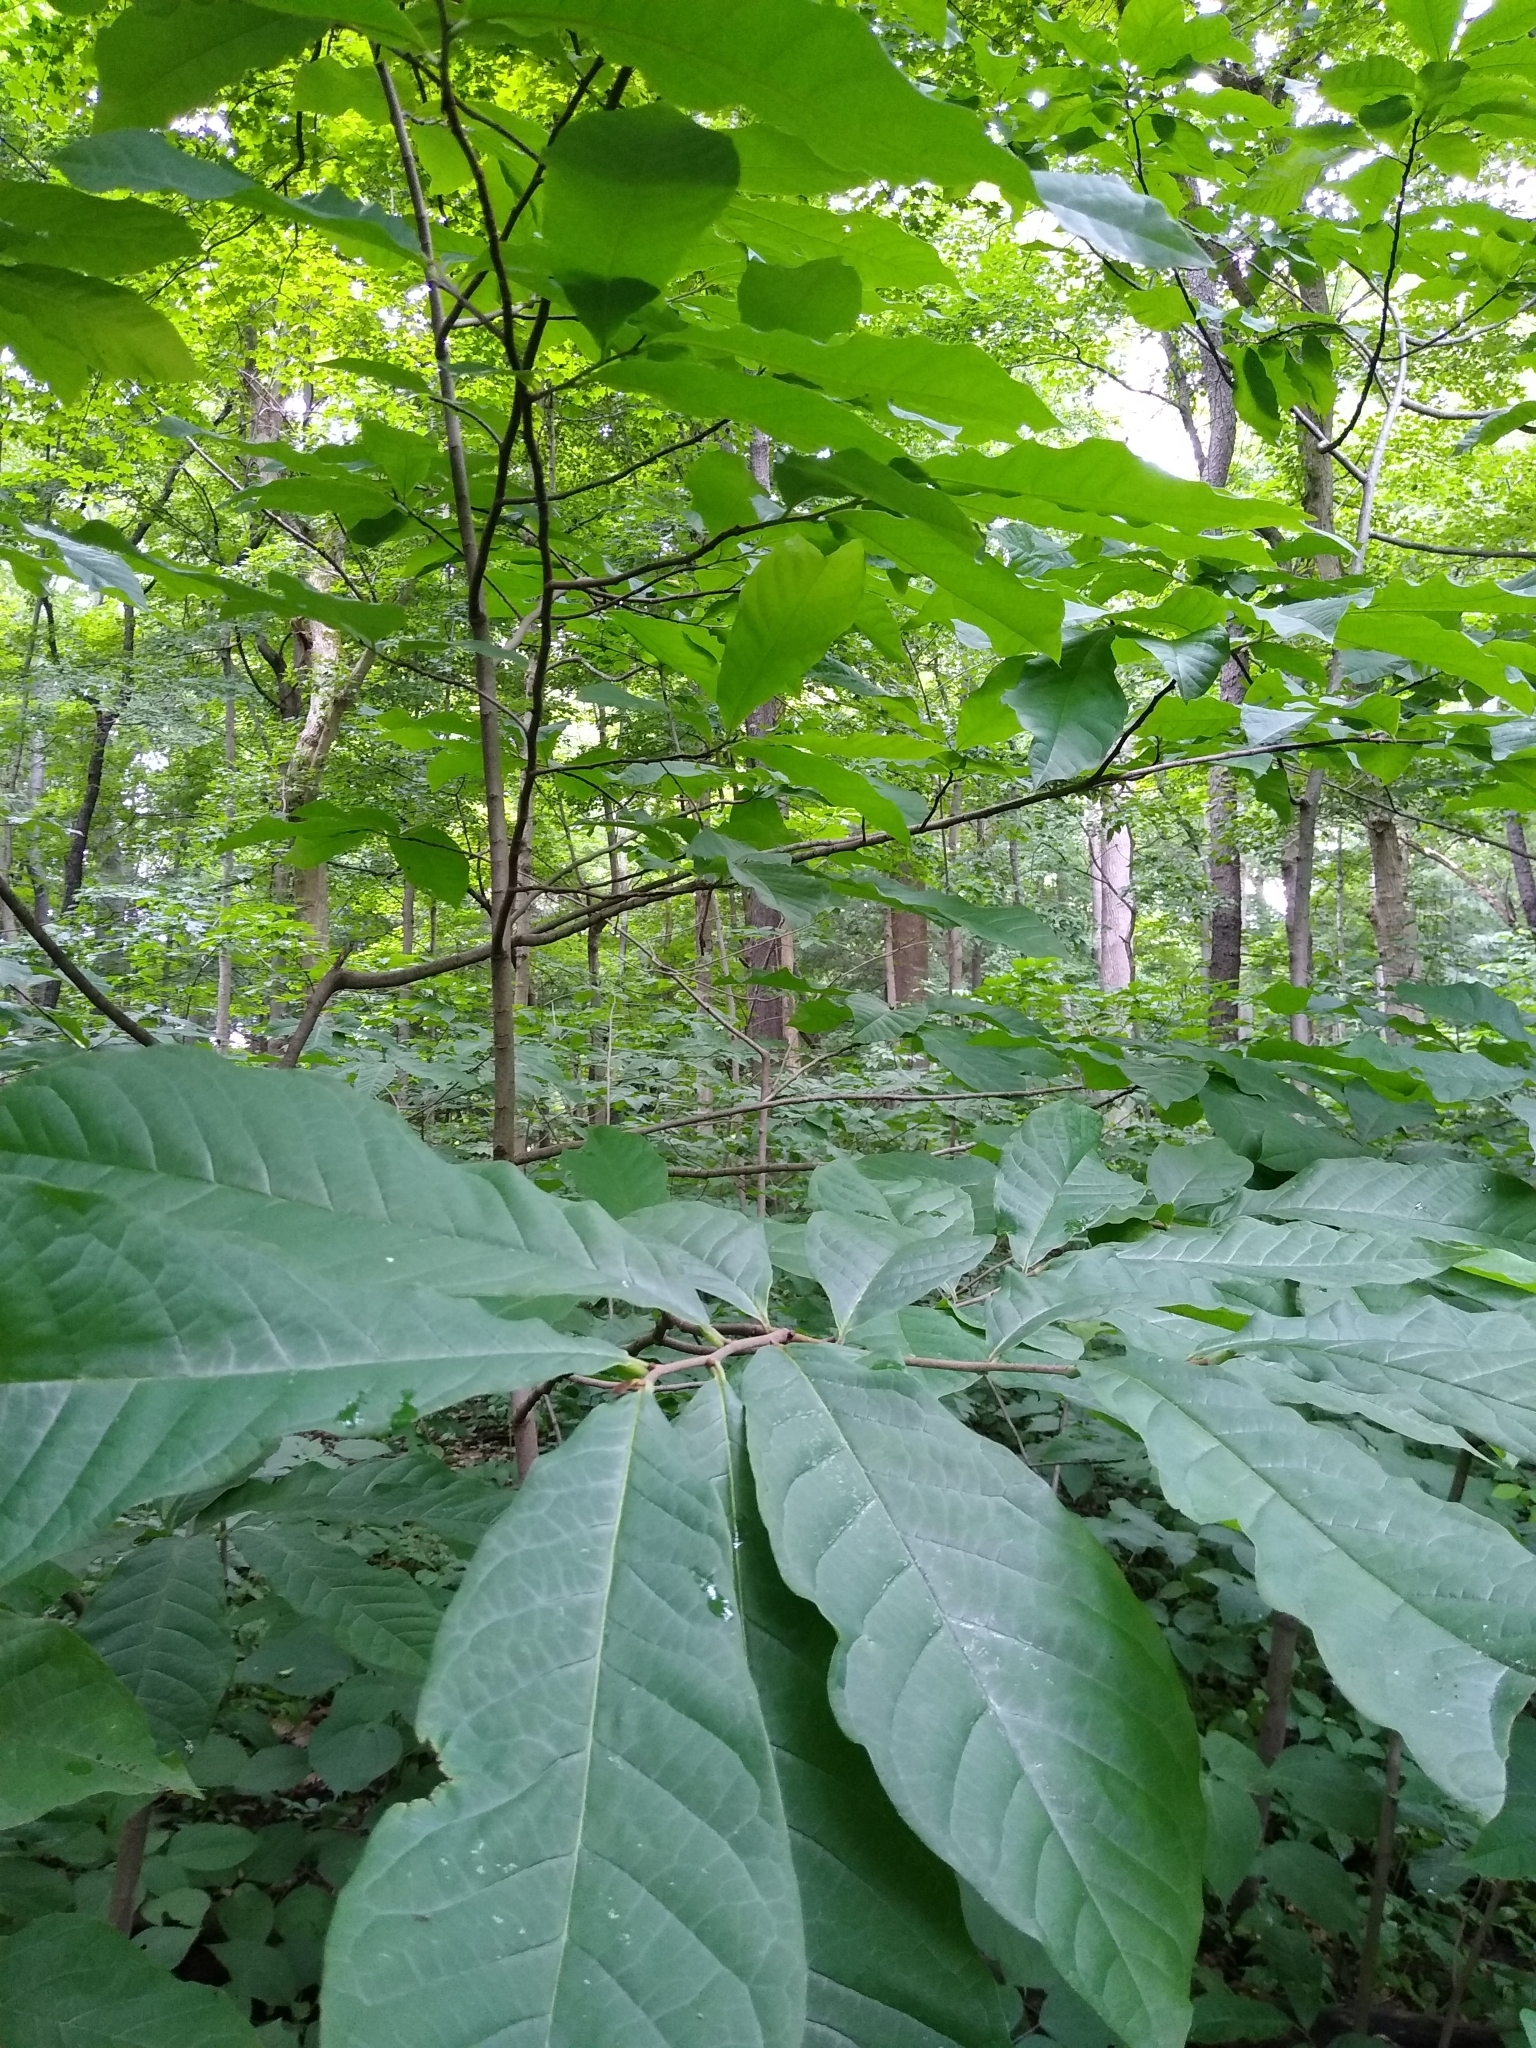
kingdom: Plantae
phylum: Tracheophyta
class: Magnoliopsida
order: Magnoliales
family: Annonaceae
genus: Asimina
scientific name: Asimina triloba
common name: Dog-banana
